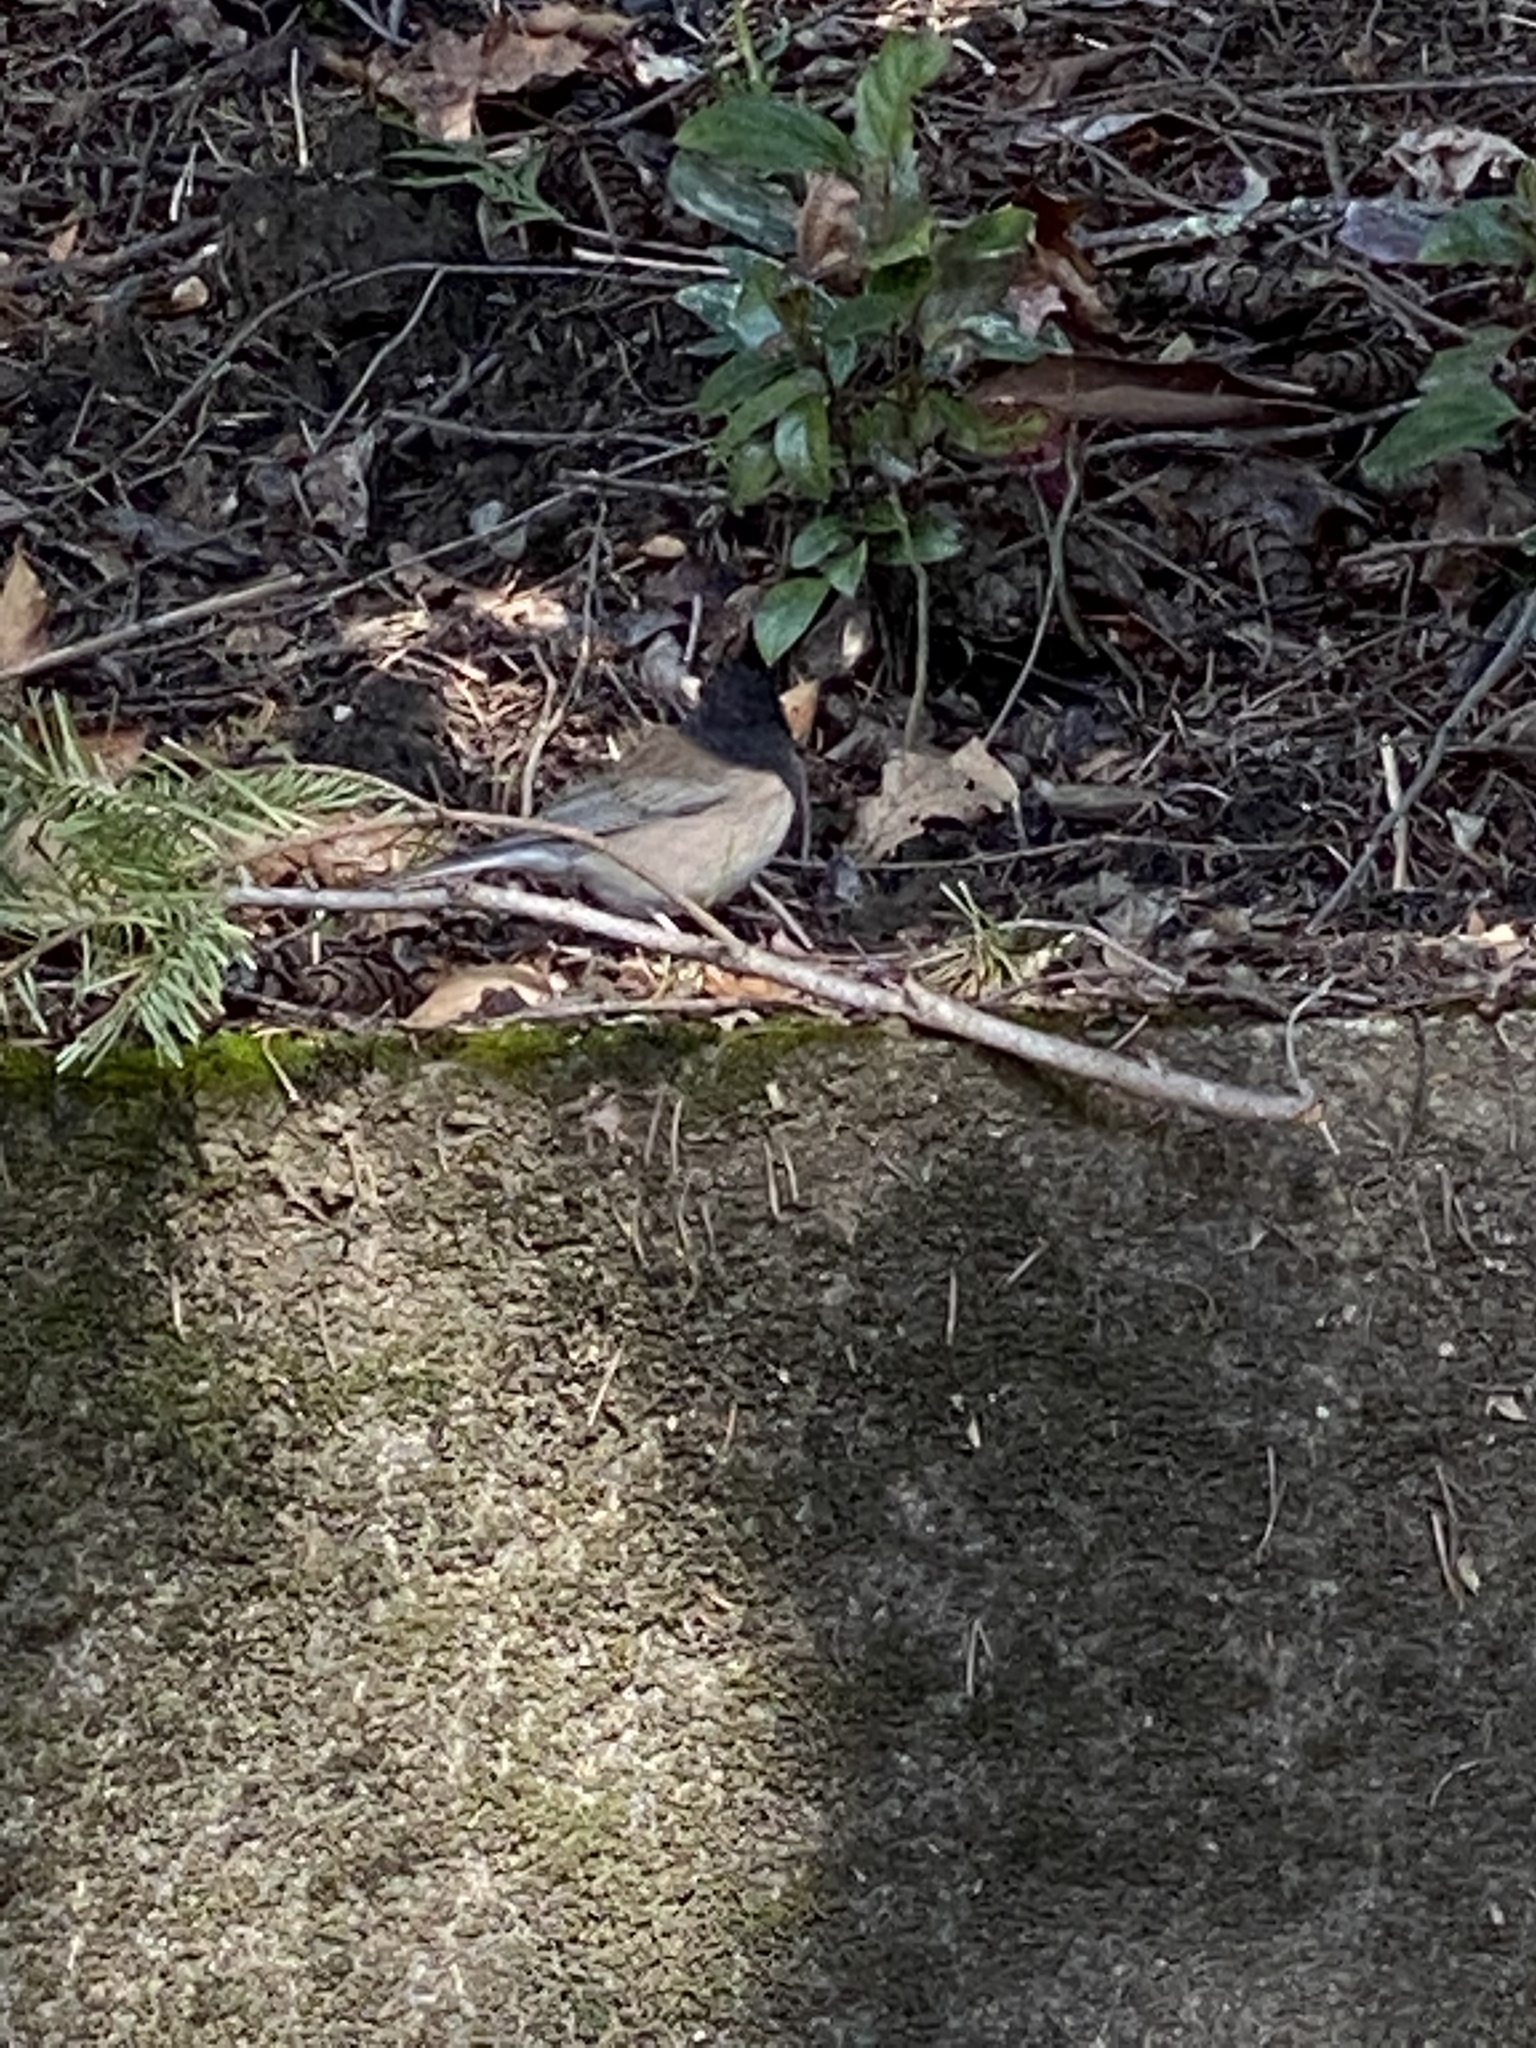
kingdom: Animalia
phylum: Chordata
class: Aves
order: Passeriformes
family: Passerellidae
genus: Junco
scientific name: Junco hyemalis
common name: Dark-eyed junco
